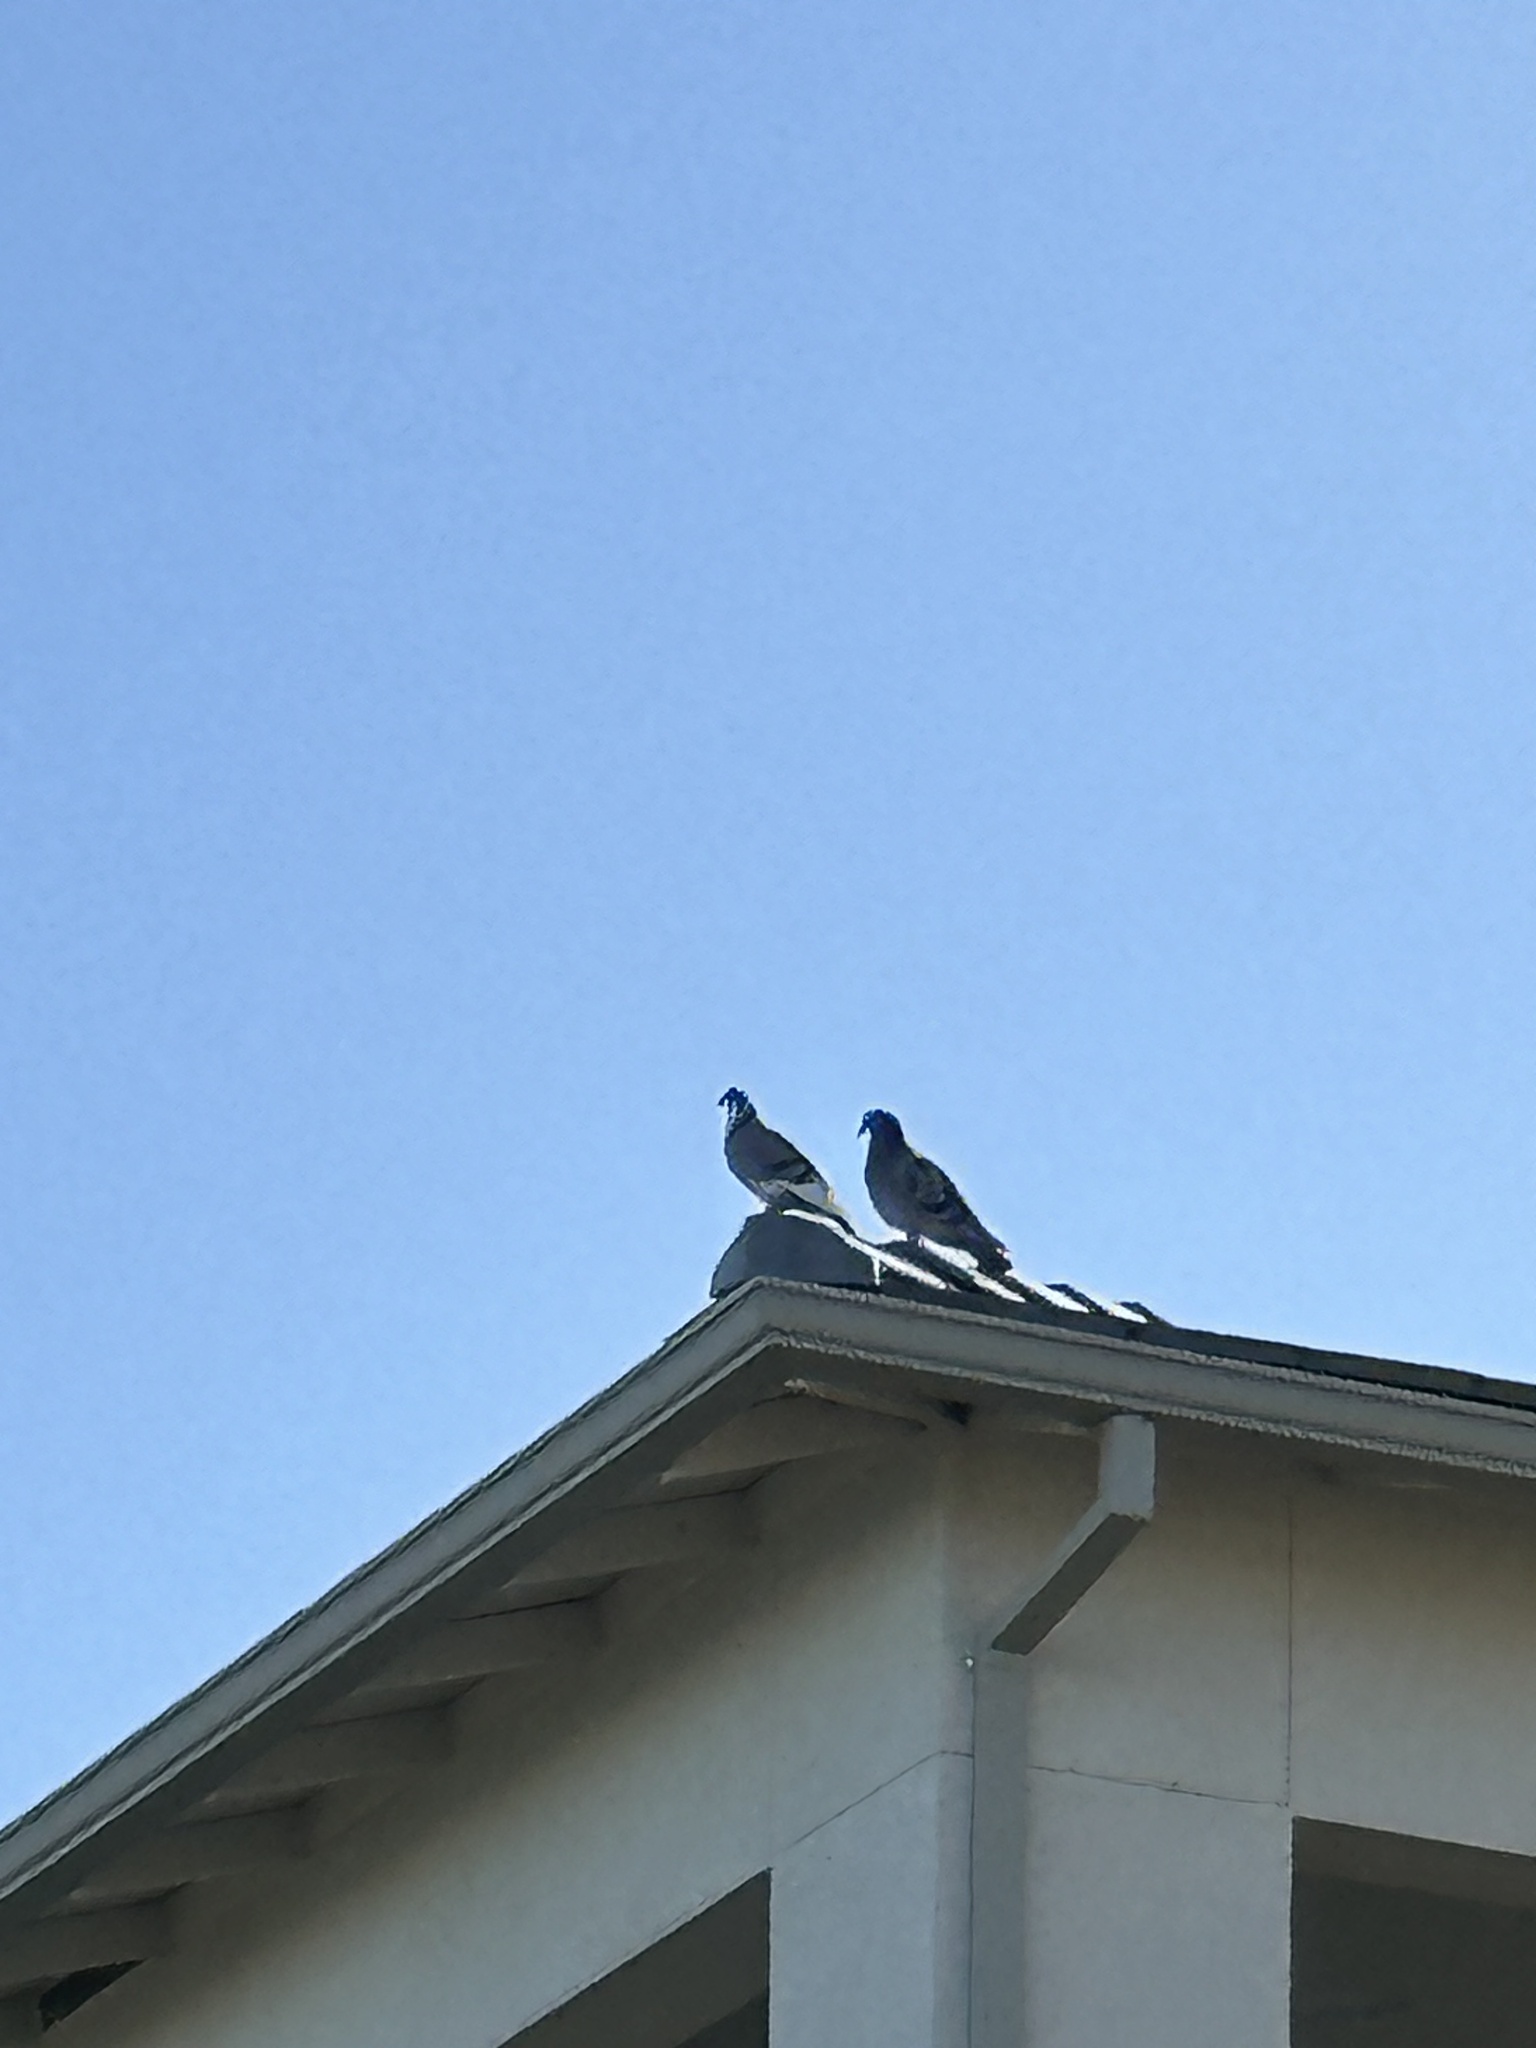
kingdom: Animalia
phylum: Chordata
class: Aves
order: Columbiformes
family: Columbidae
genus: Columba
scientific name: Columba livia
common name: Rock pigeon
